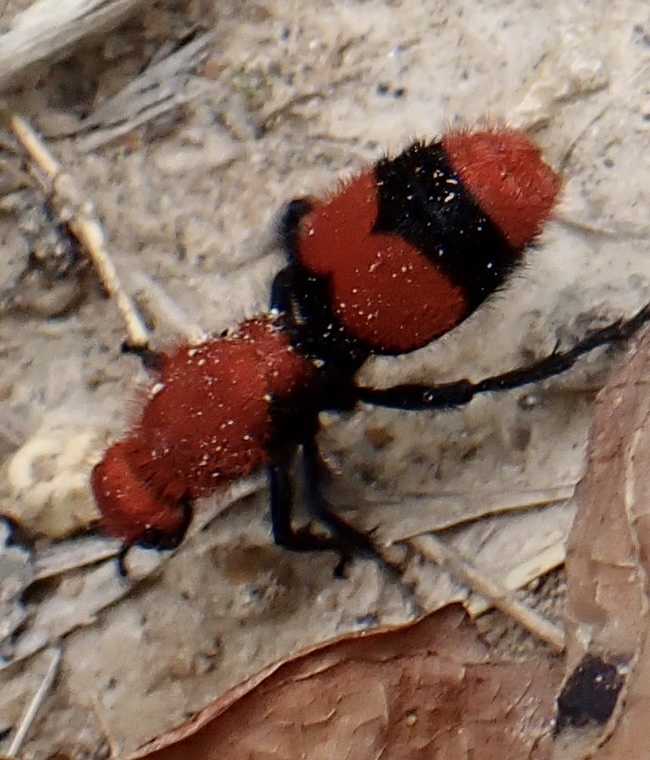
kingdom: Animalia
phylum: Arthropoda
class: Insecta
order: Hymenoptera
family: Mutillidae
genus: Dasymutilla
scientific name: Dasymutilla occidentalis
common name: Common eastern velvet ant
